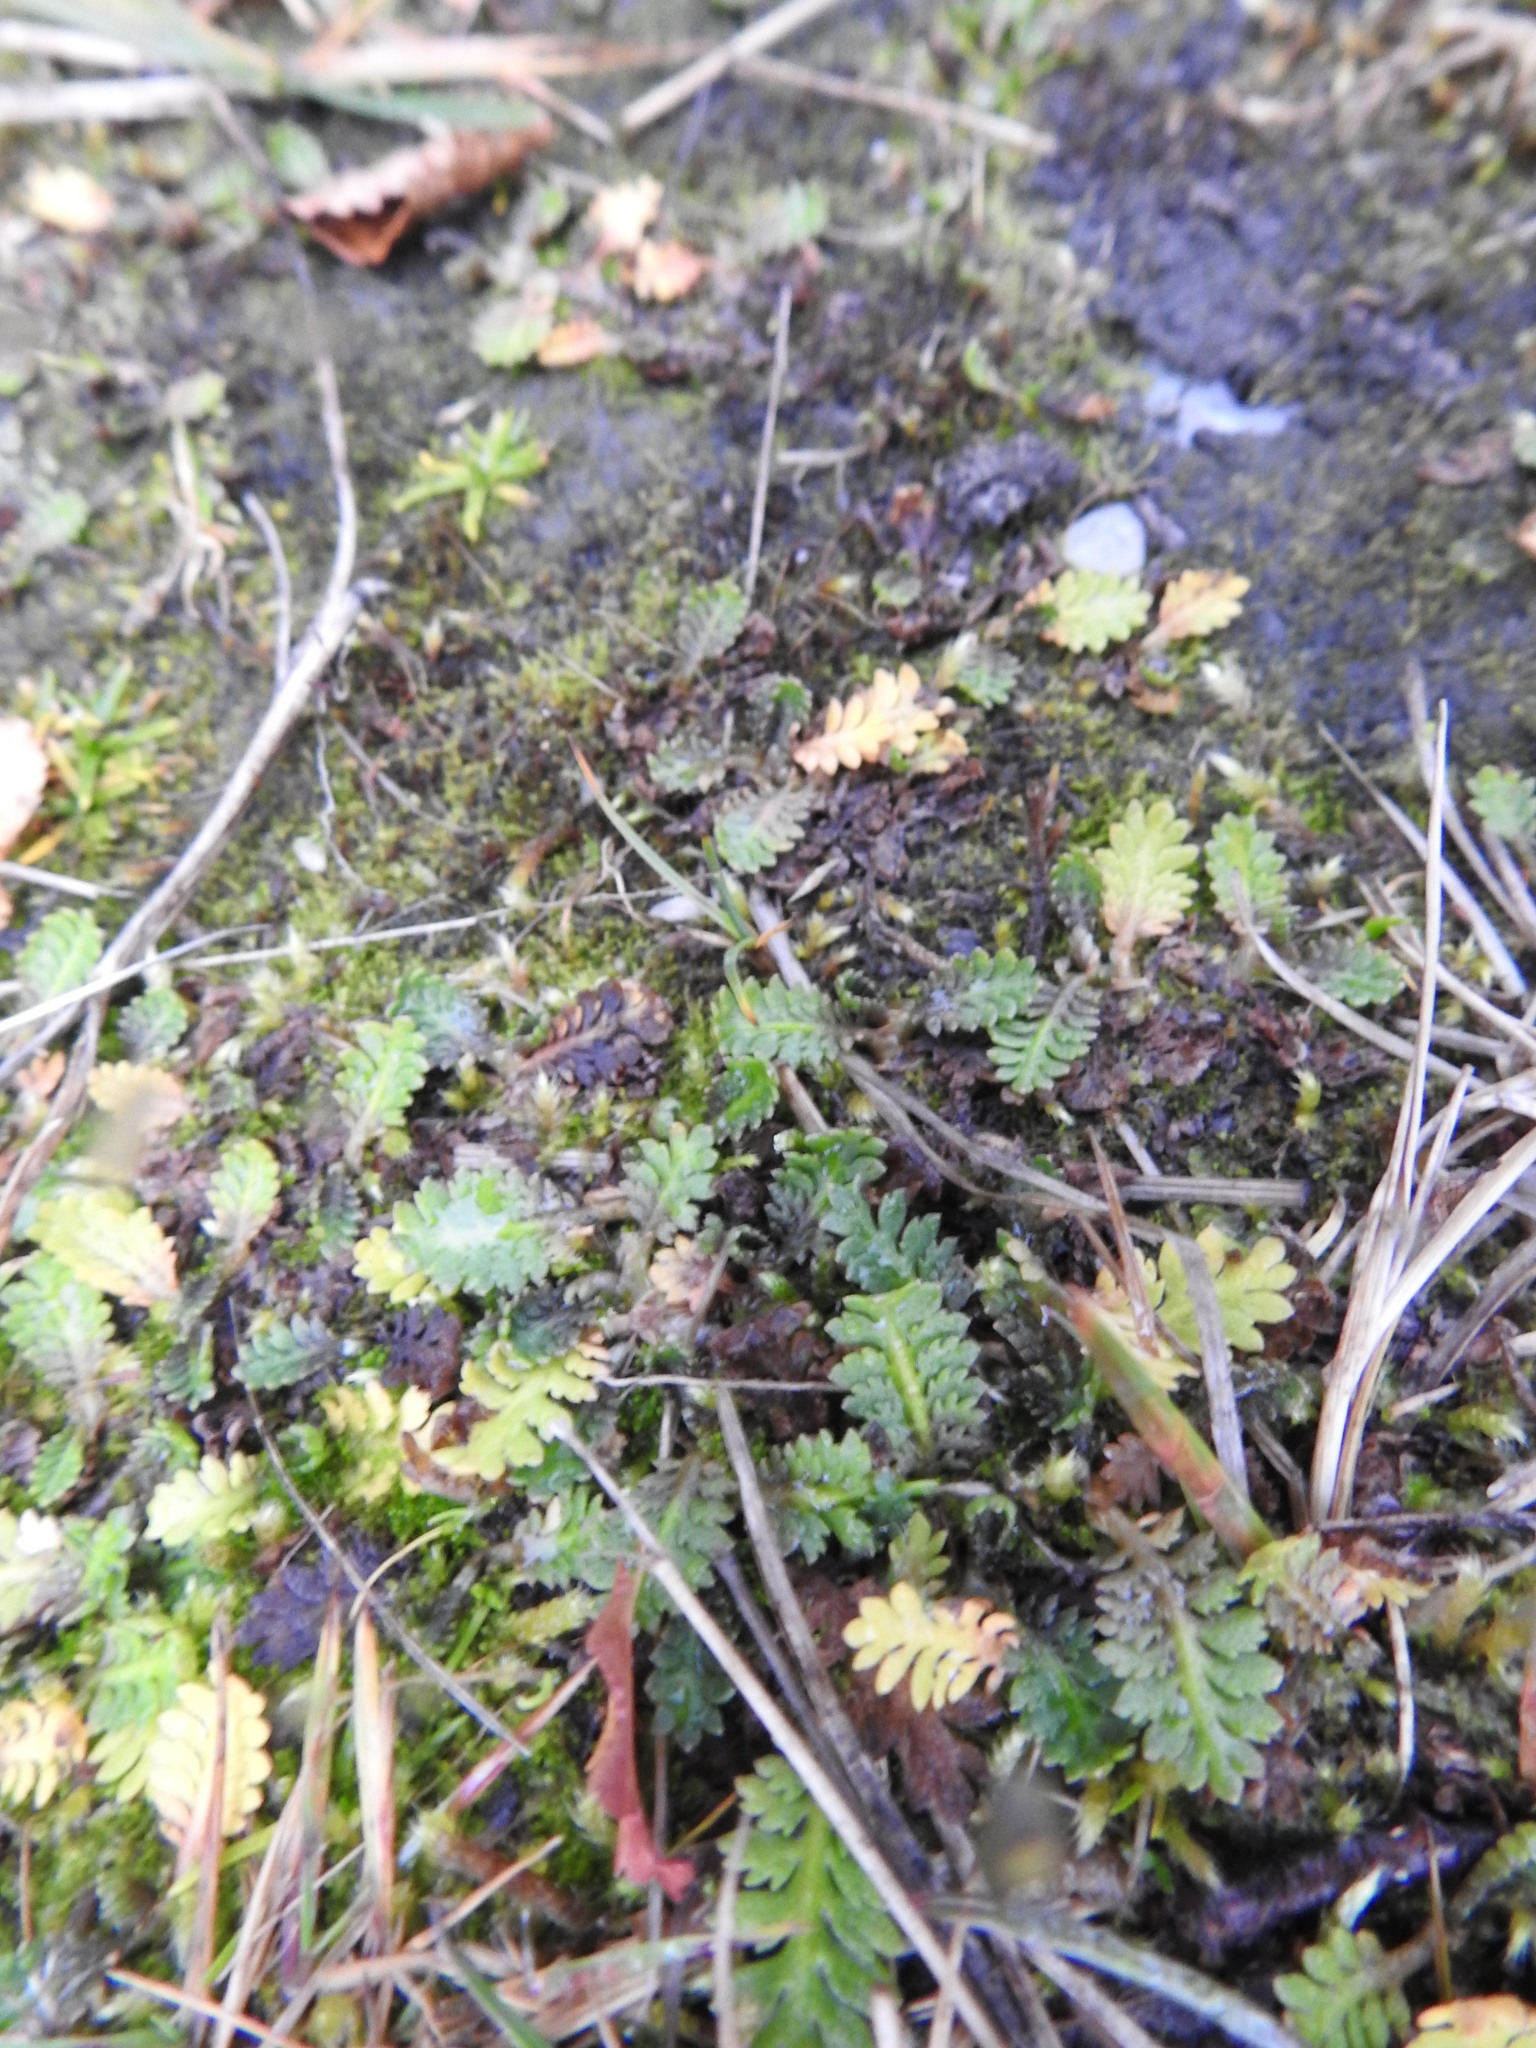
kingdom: Plantae
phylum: Tracheophyta
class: Magnoliopsida
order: Asterales
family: Asteraceae
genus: Leptinella
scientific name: Leptinella scariosa
